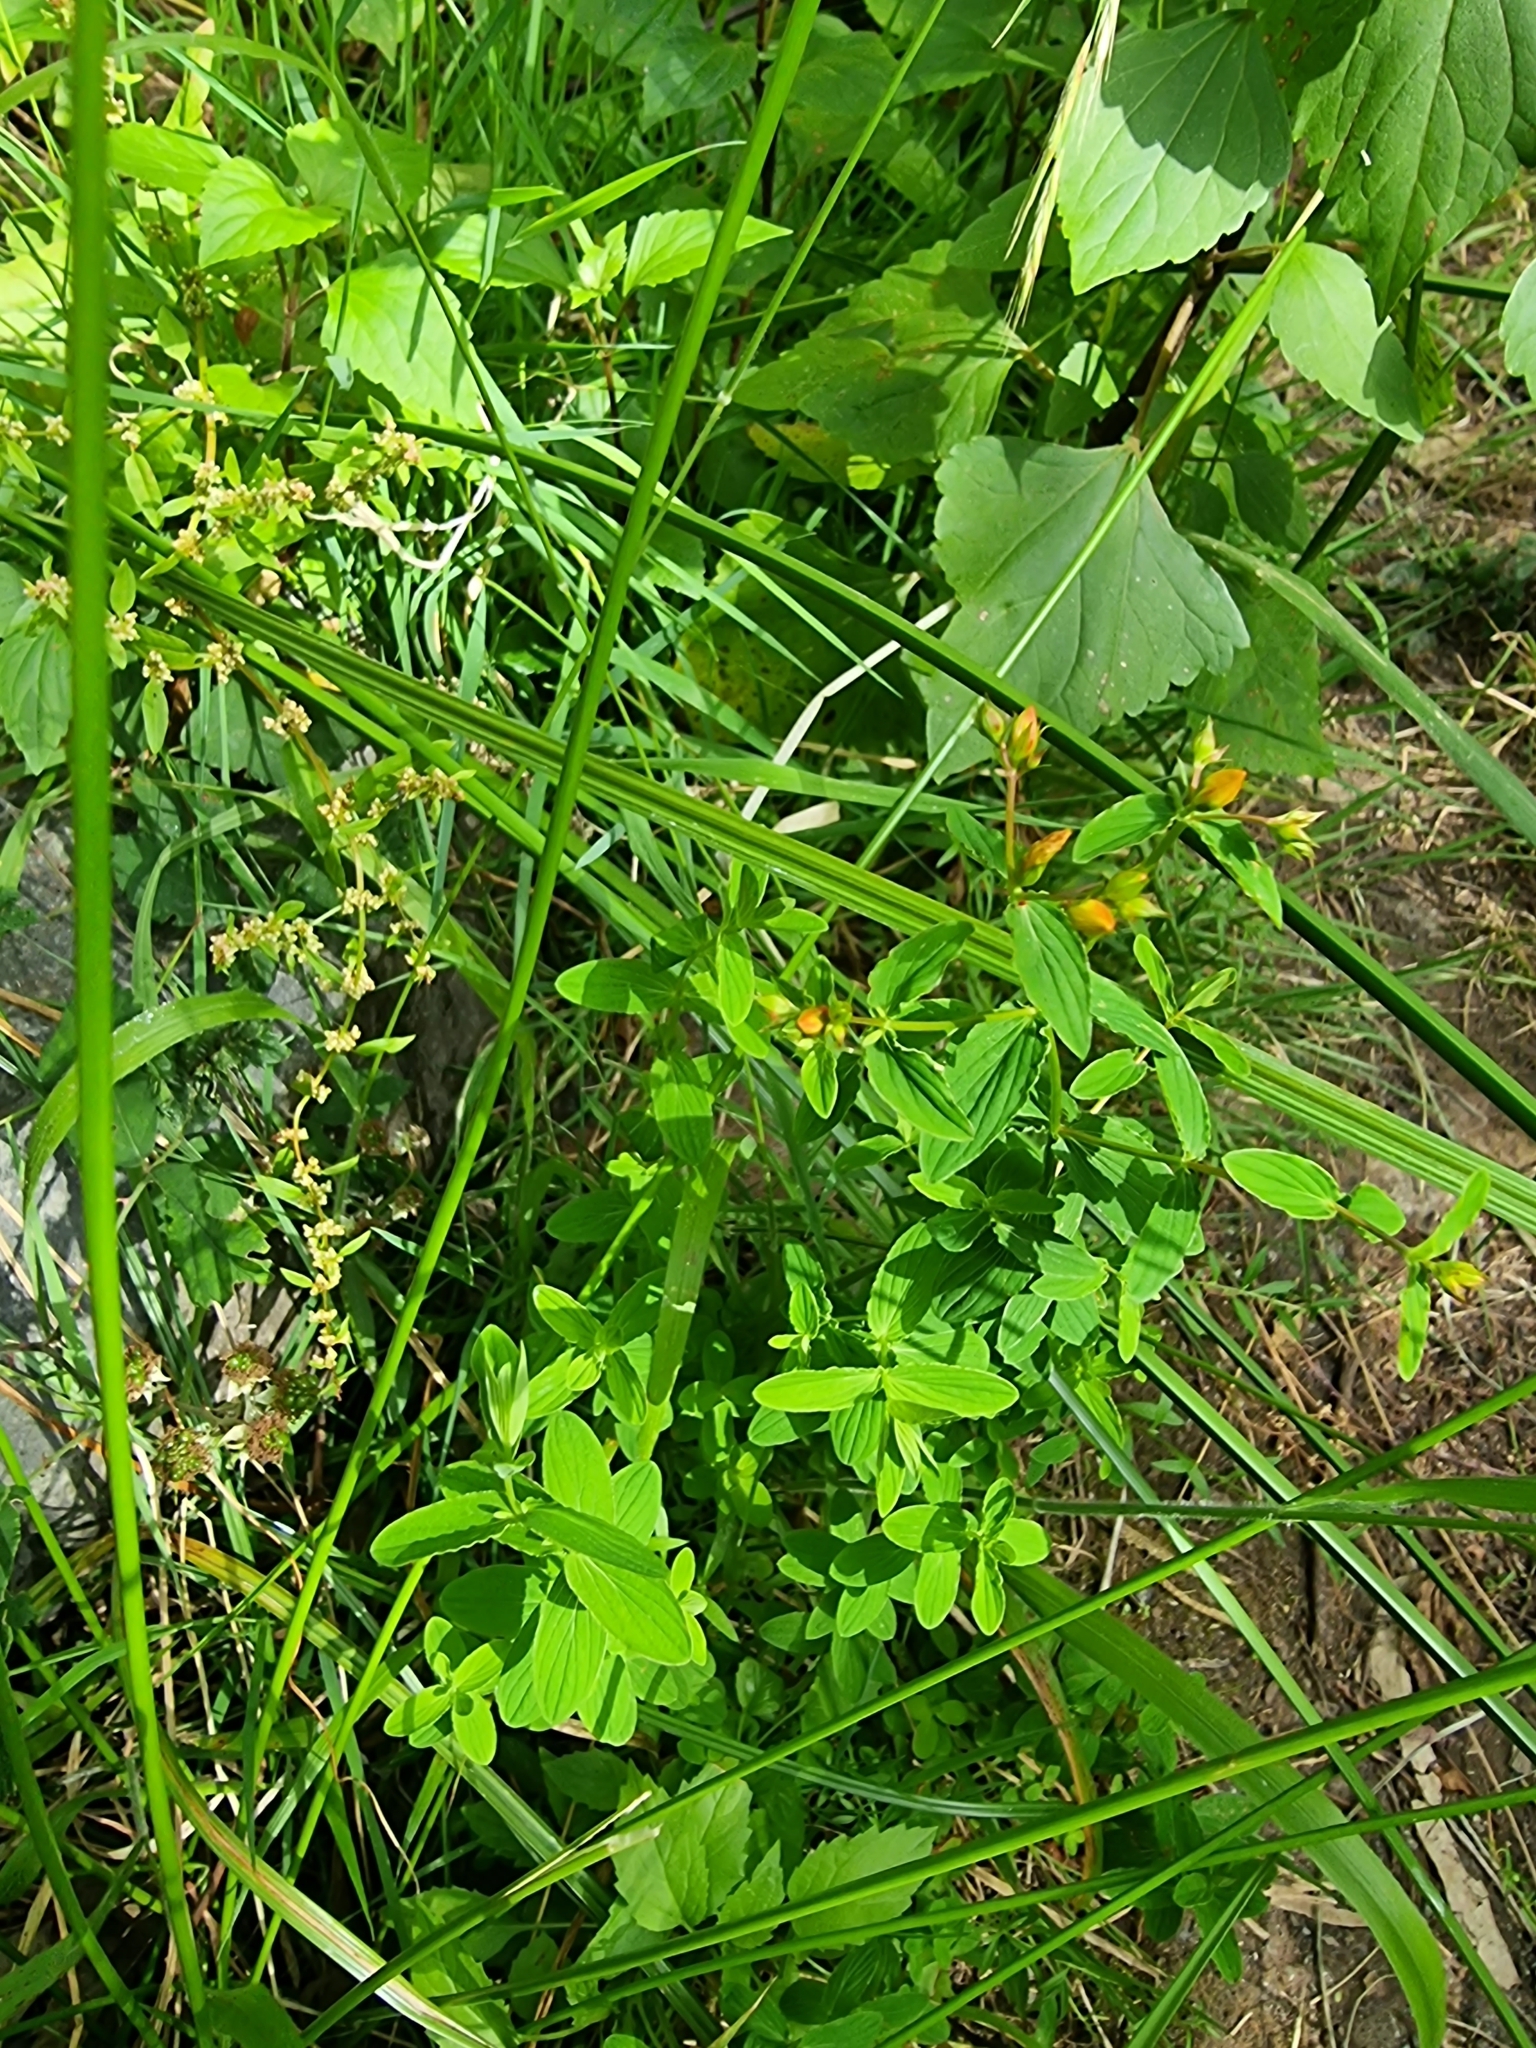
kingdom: Plantae
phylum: Tracheophyta
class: Magnoliopsida
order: Malpighiales
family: Hypericaceae
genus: Hypericum
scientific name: Hypericum undulatum
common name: Wavy st. john's-wort
